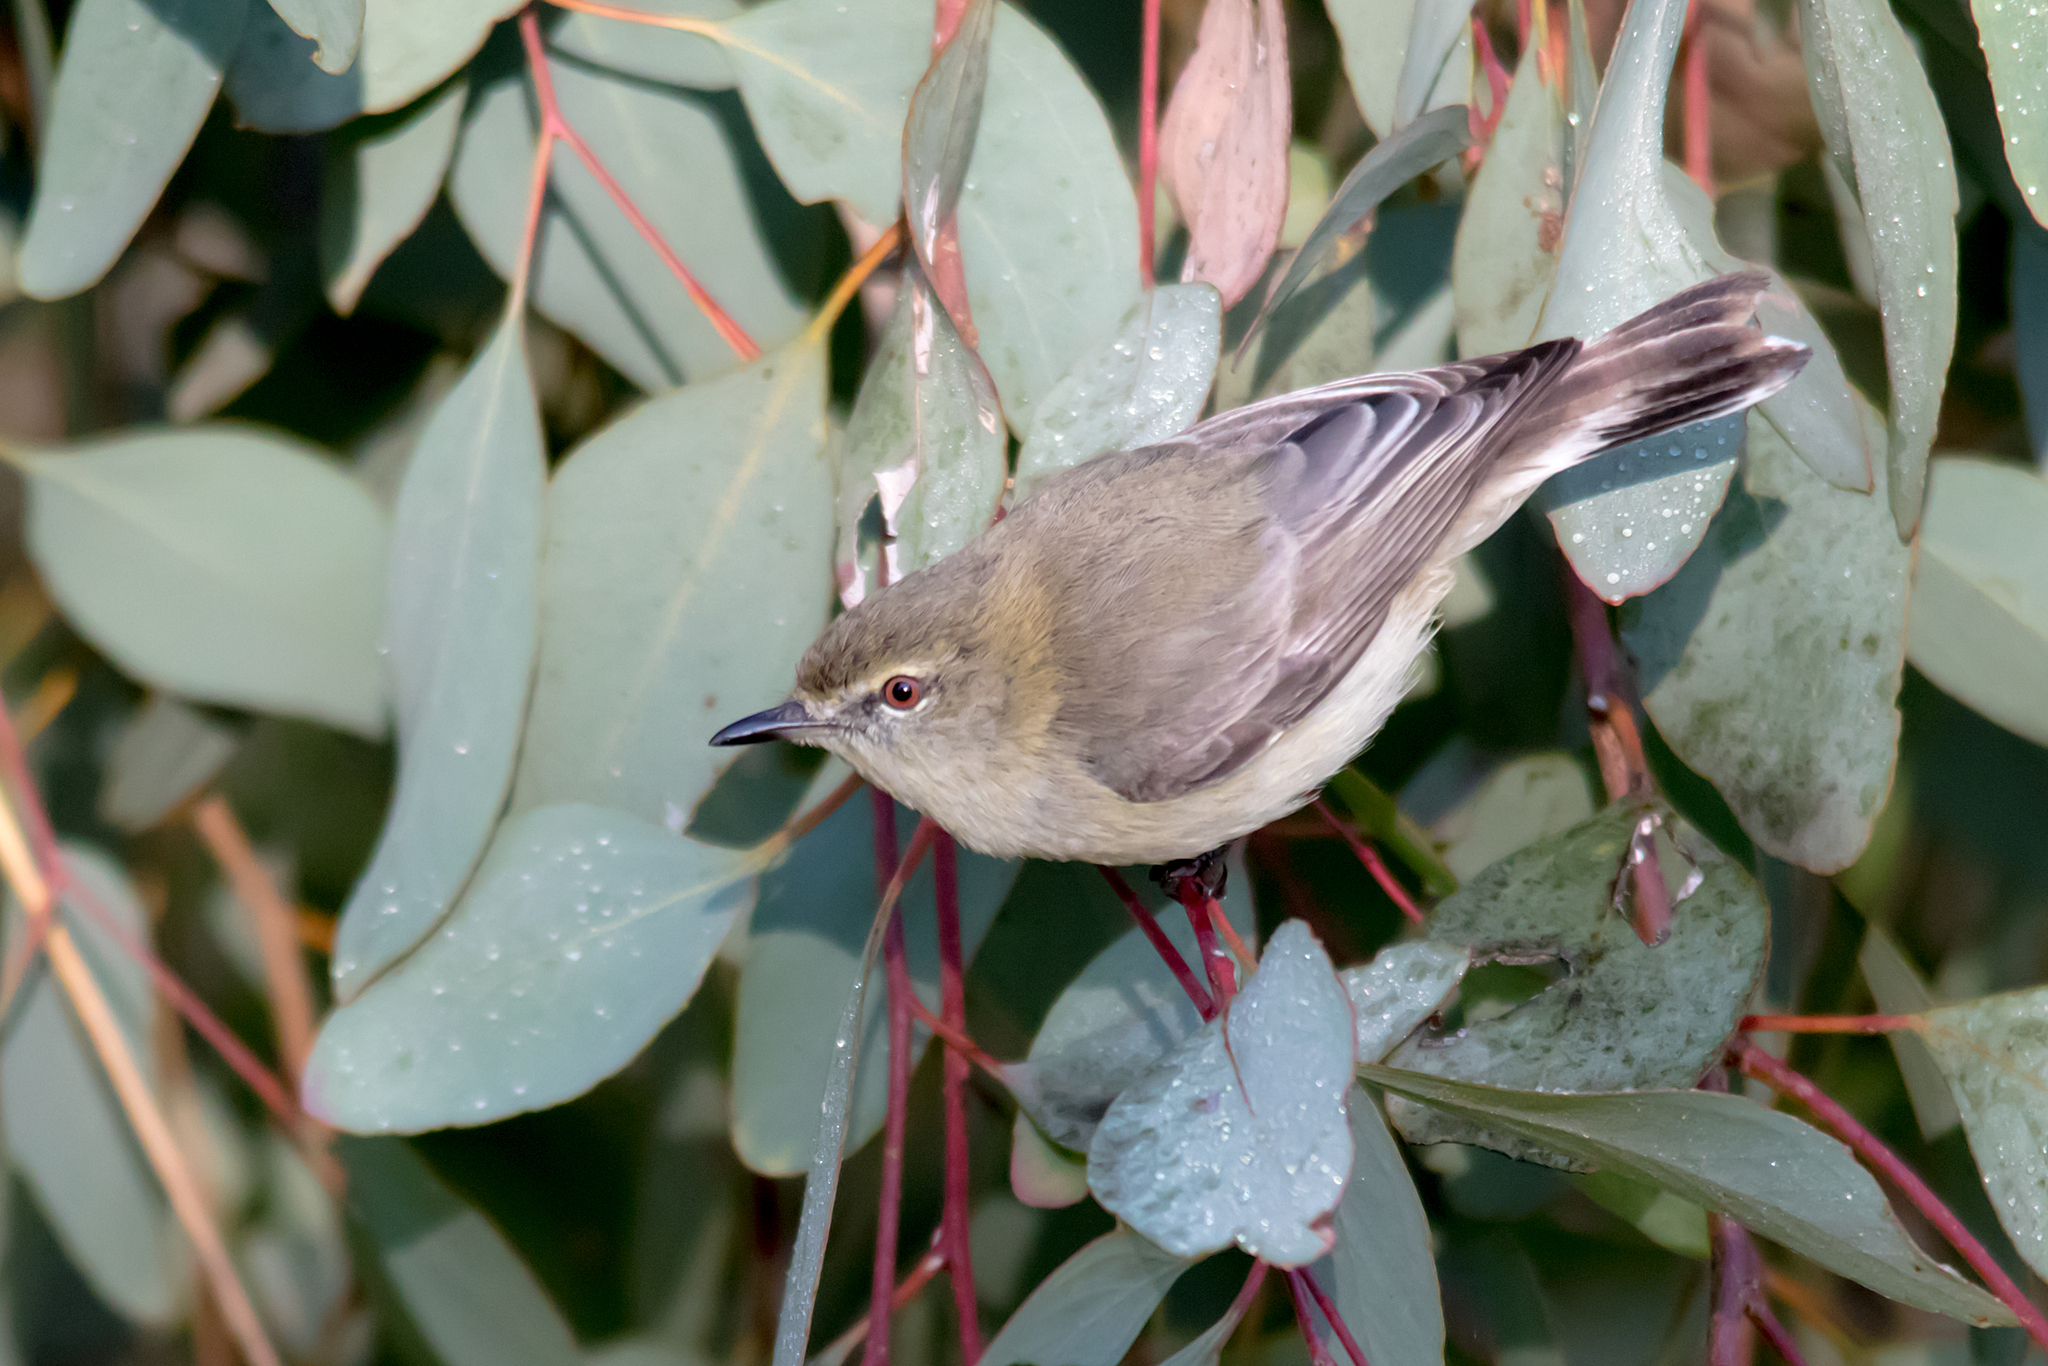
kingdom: Animalia
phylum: Chordata
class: Aves
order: Passeriformes
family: Acanthizidae
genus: Gerygone
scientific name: Gerygone fusca
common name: Western gerygone
